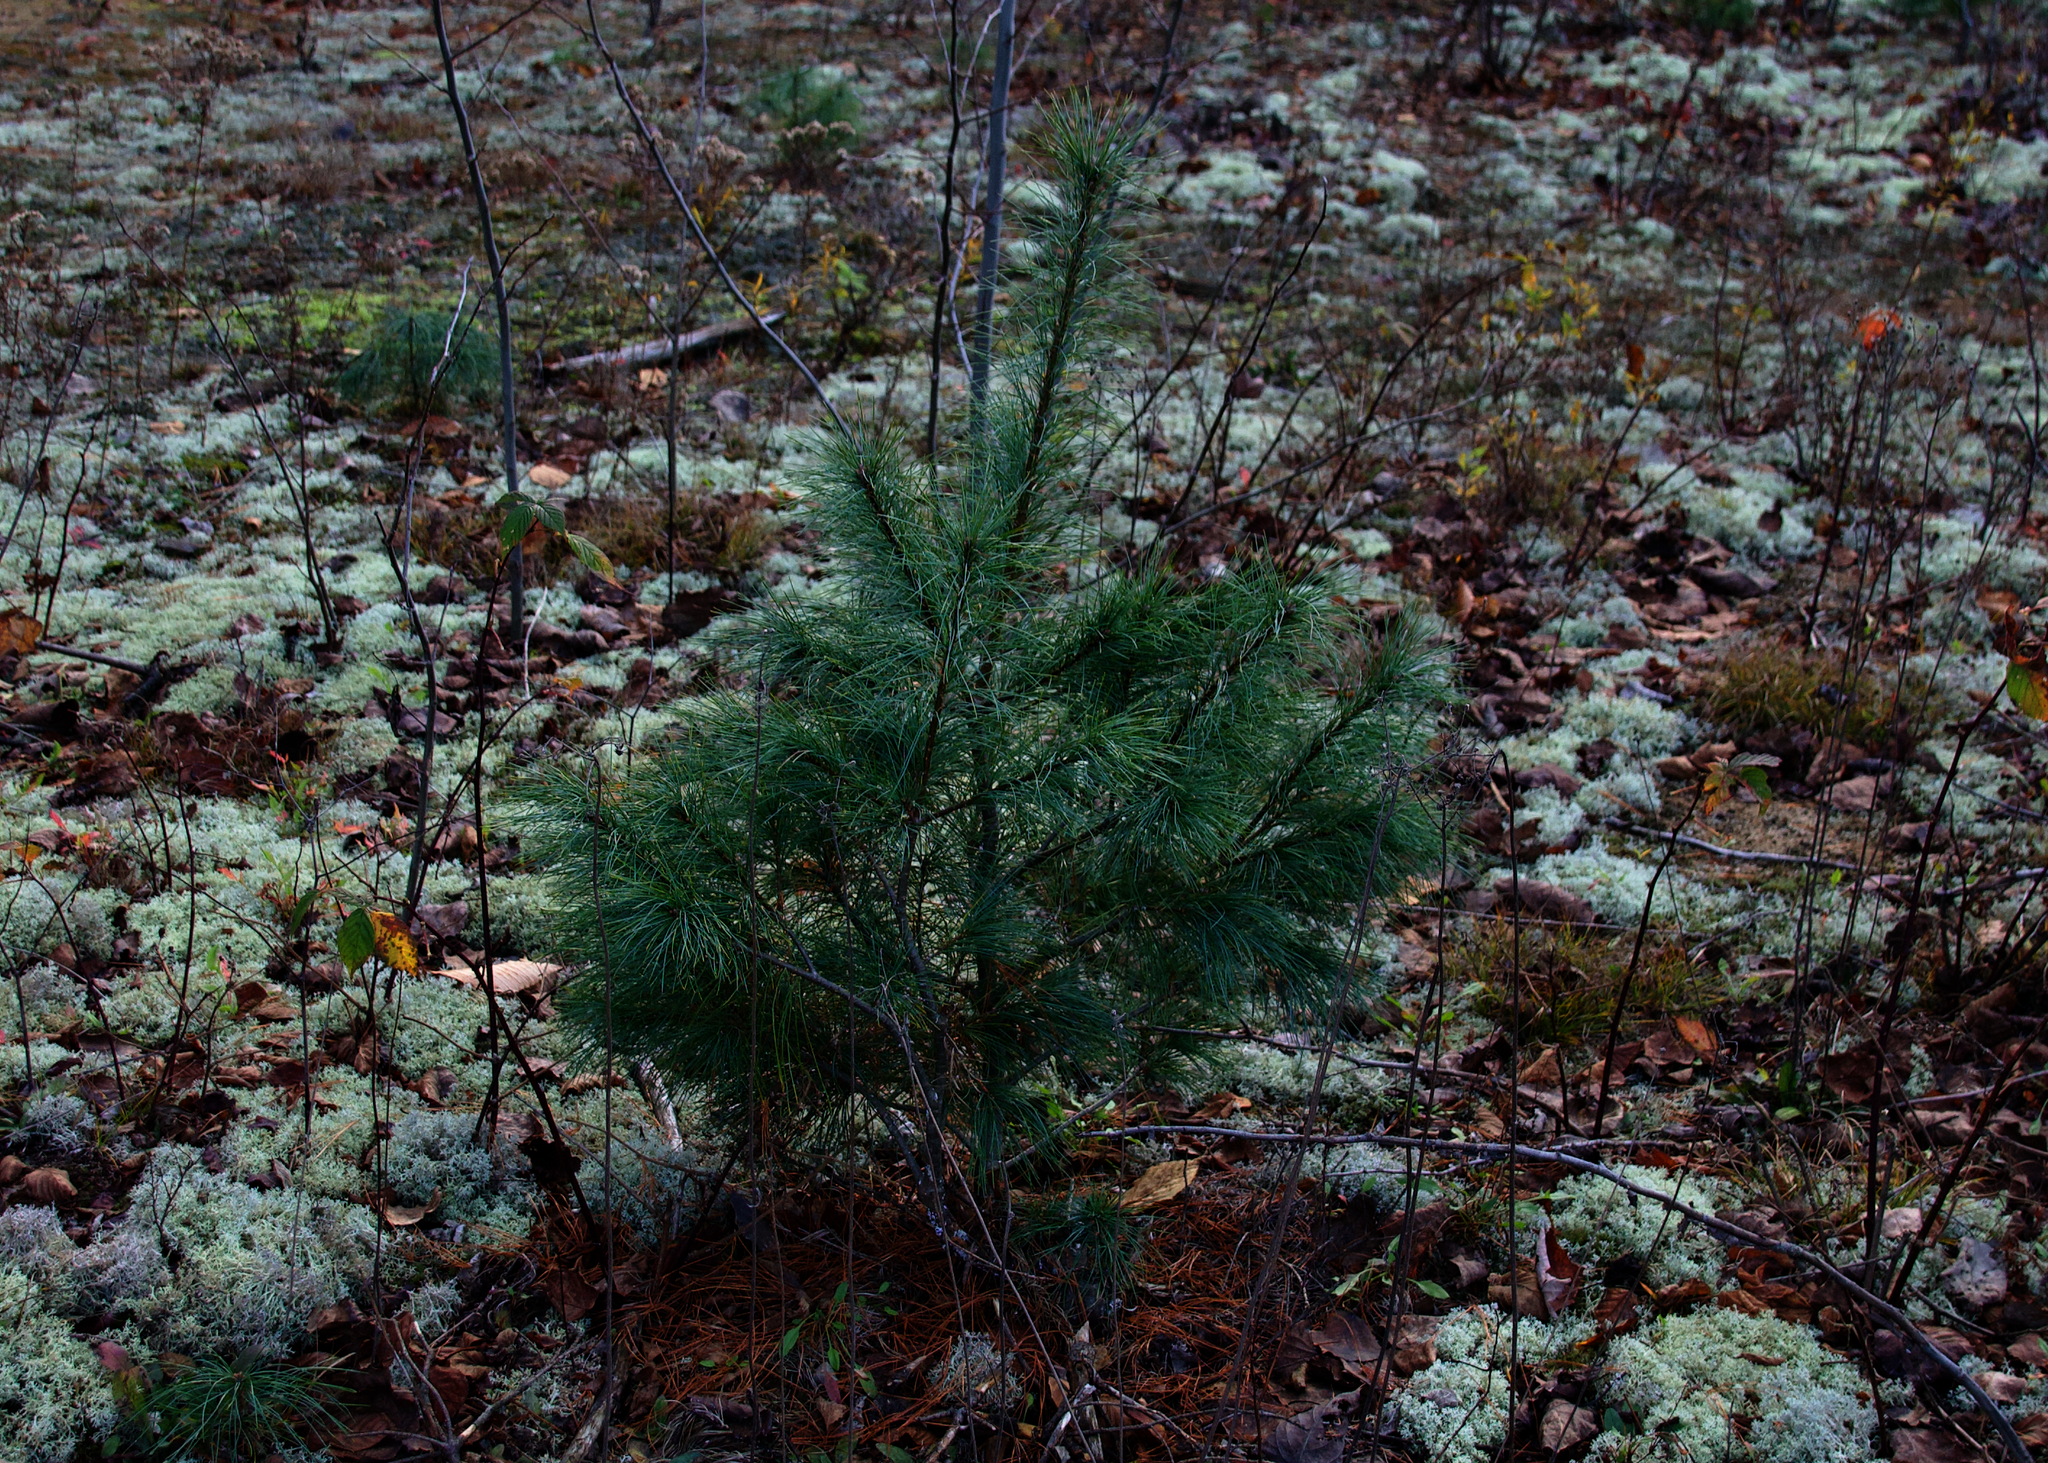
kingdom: Plantae
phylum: Tracheophyta
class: Pinopsida
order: Pinales
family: Pinaceae
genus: Pinus
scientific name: Pinus strobus
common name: Weymouth pine
